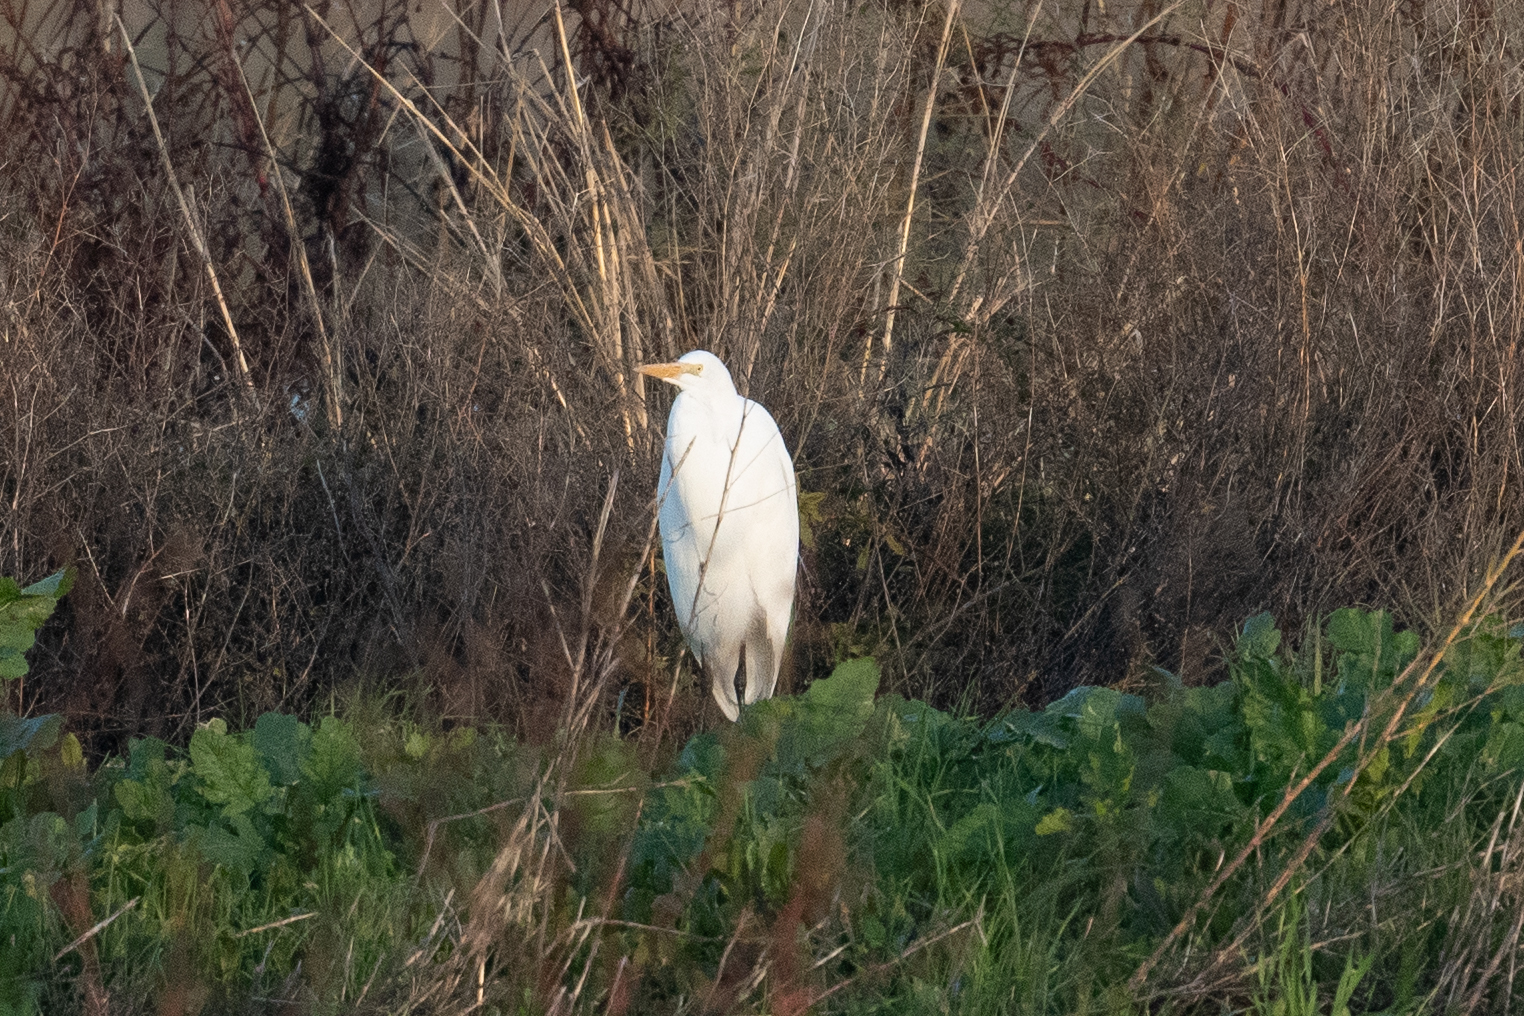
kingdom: Animalia
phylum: Chordata
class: Aves
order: Pelecaniformes
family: Ardeidae
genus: Ardea
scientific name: Ardea alba
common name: Great egret
